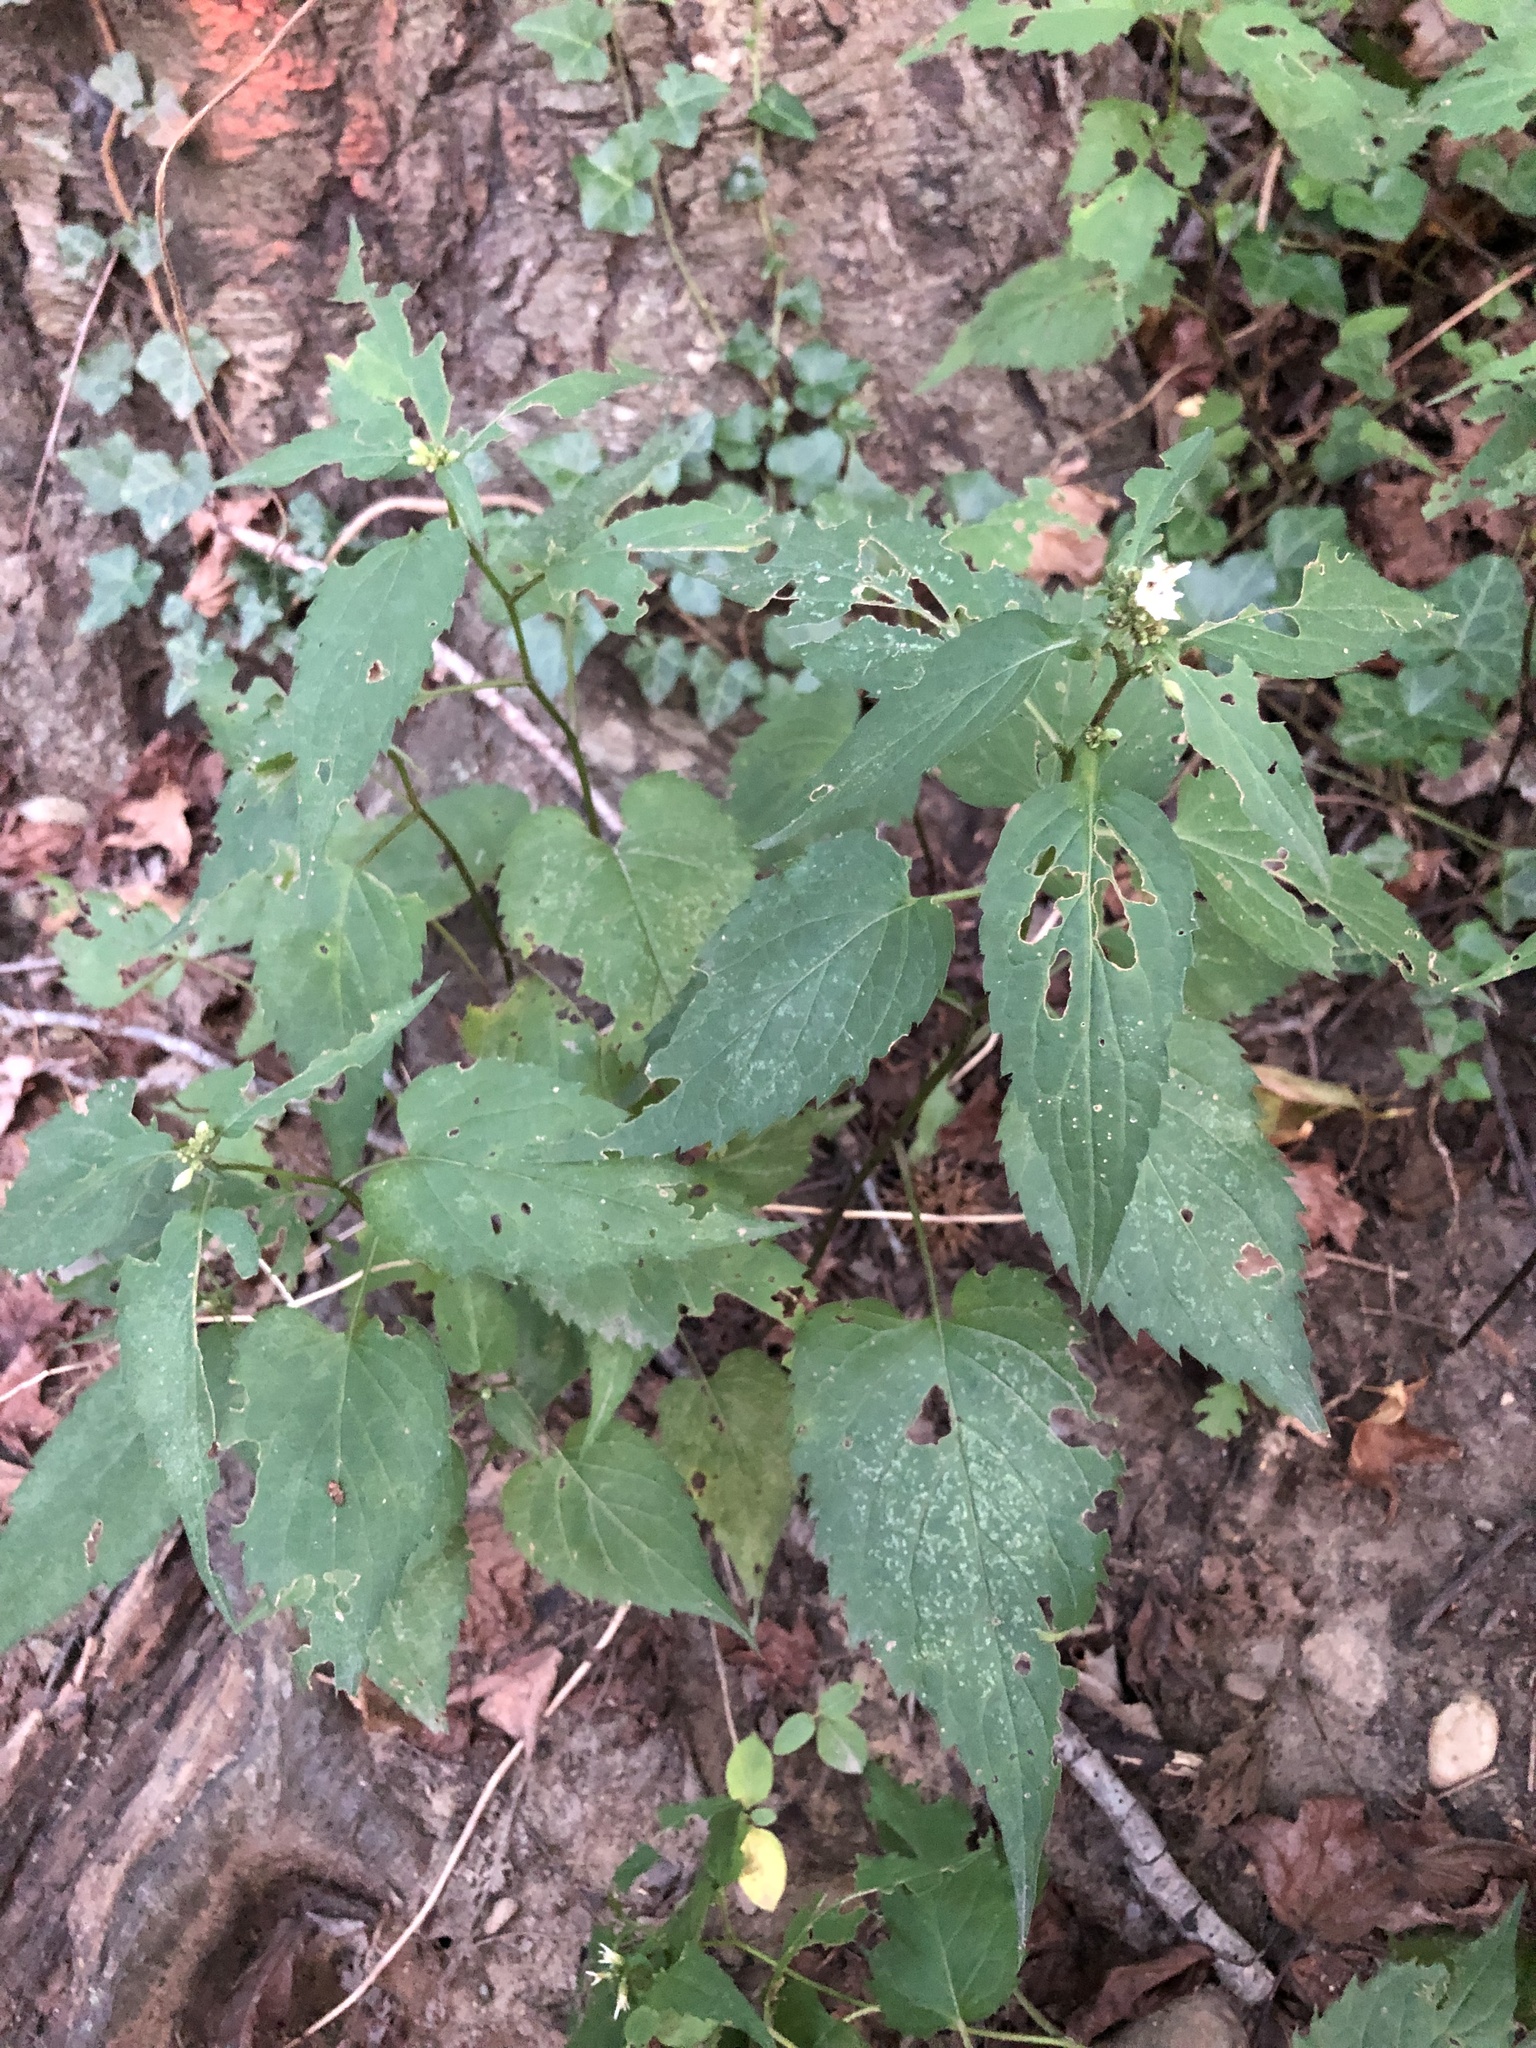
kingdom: Plantae
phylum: Tracheophyta
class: Magnoliopsida
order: Asterales
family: Asteraceae
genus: Eurybia
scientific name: Eurybia divaricata
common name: White wood aster
